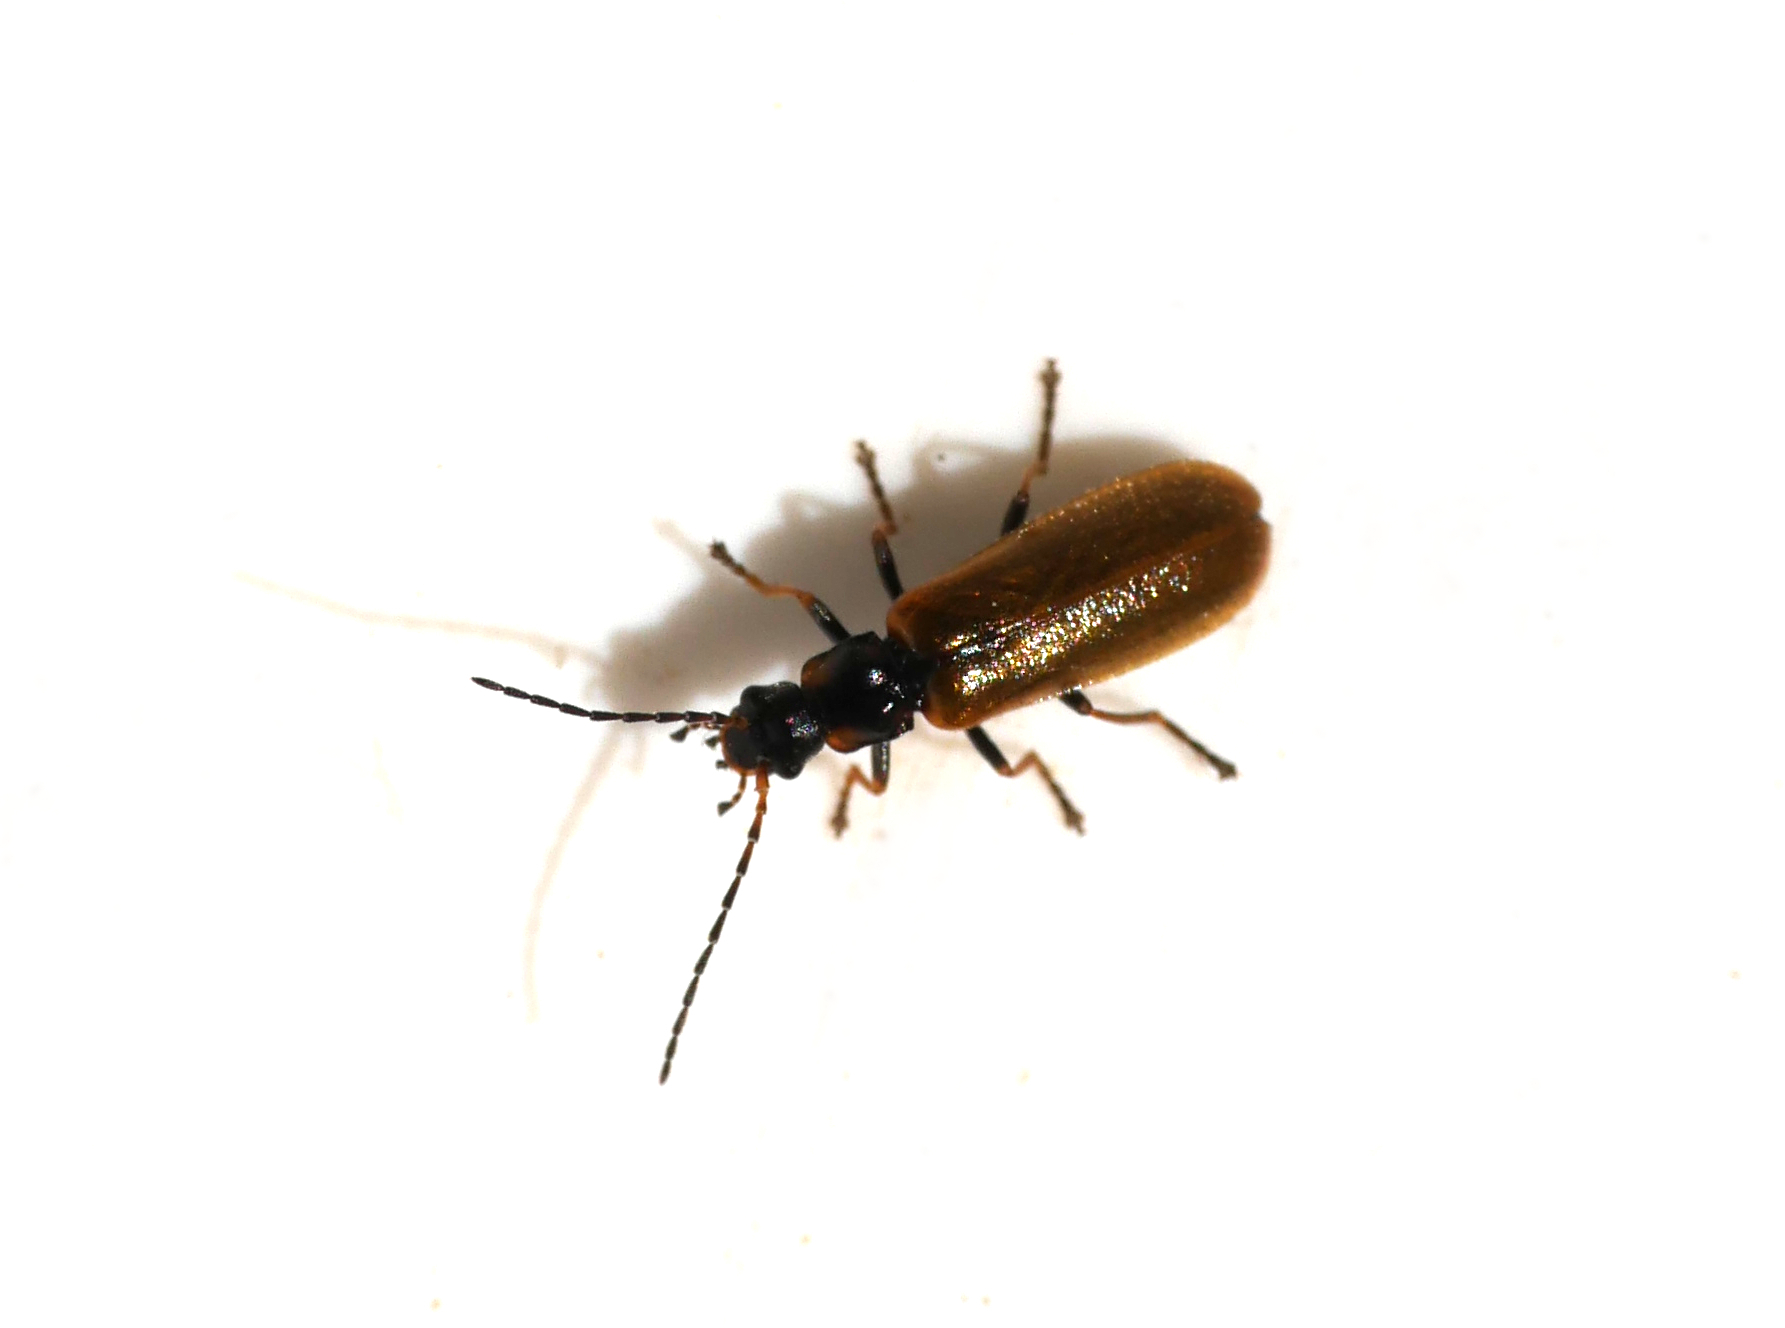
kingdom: Animalia
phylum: Arthropoda
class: Insecta
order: Coleoptera
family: Cantharidae
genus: Rhagonycha
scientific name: Rhagonycha nigriventris
